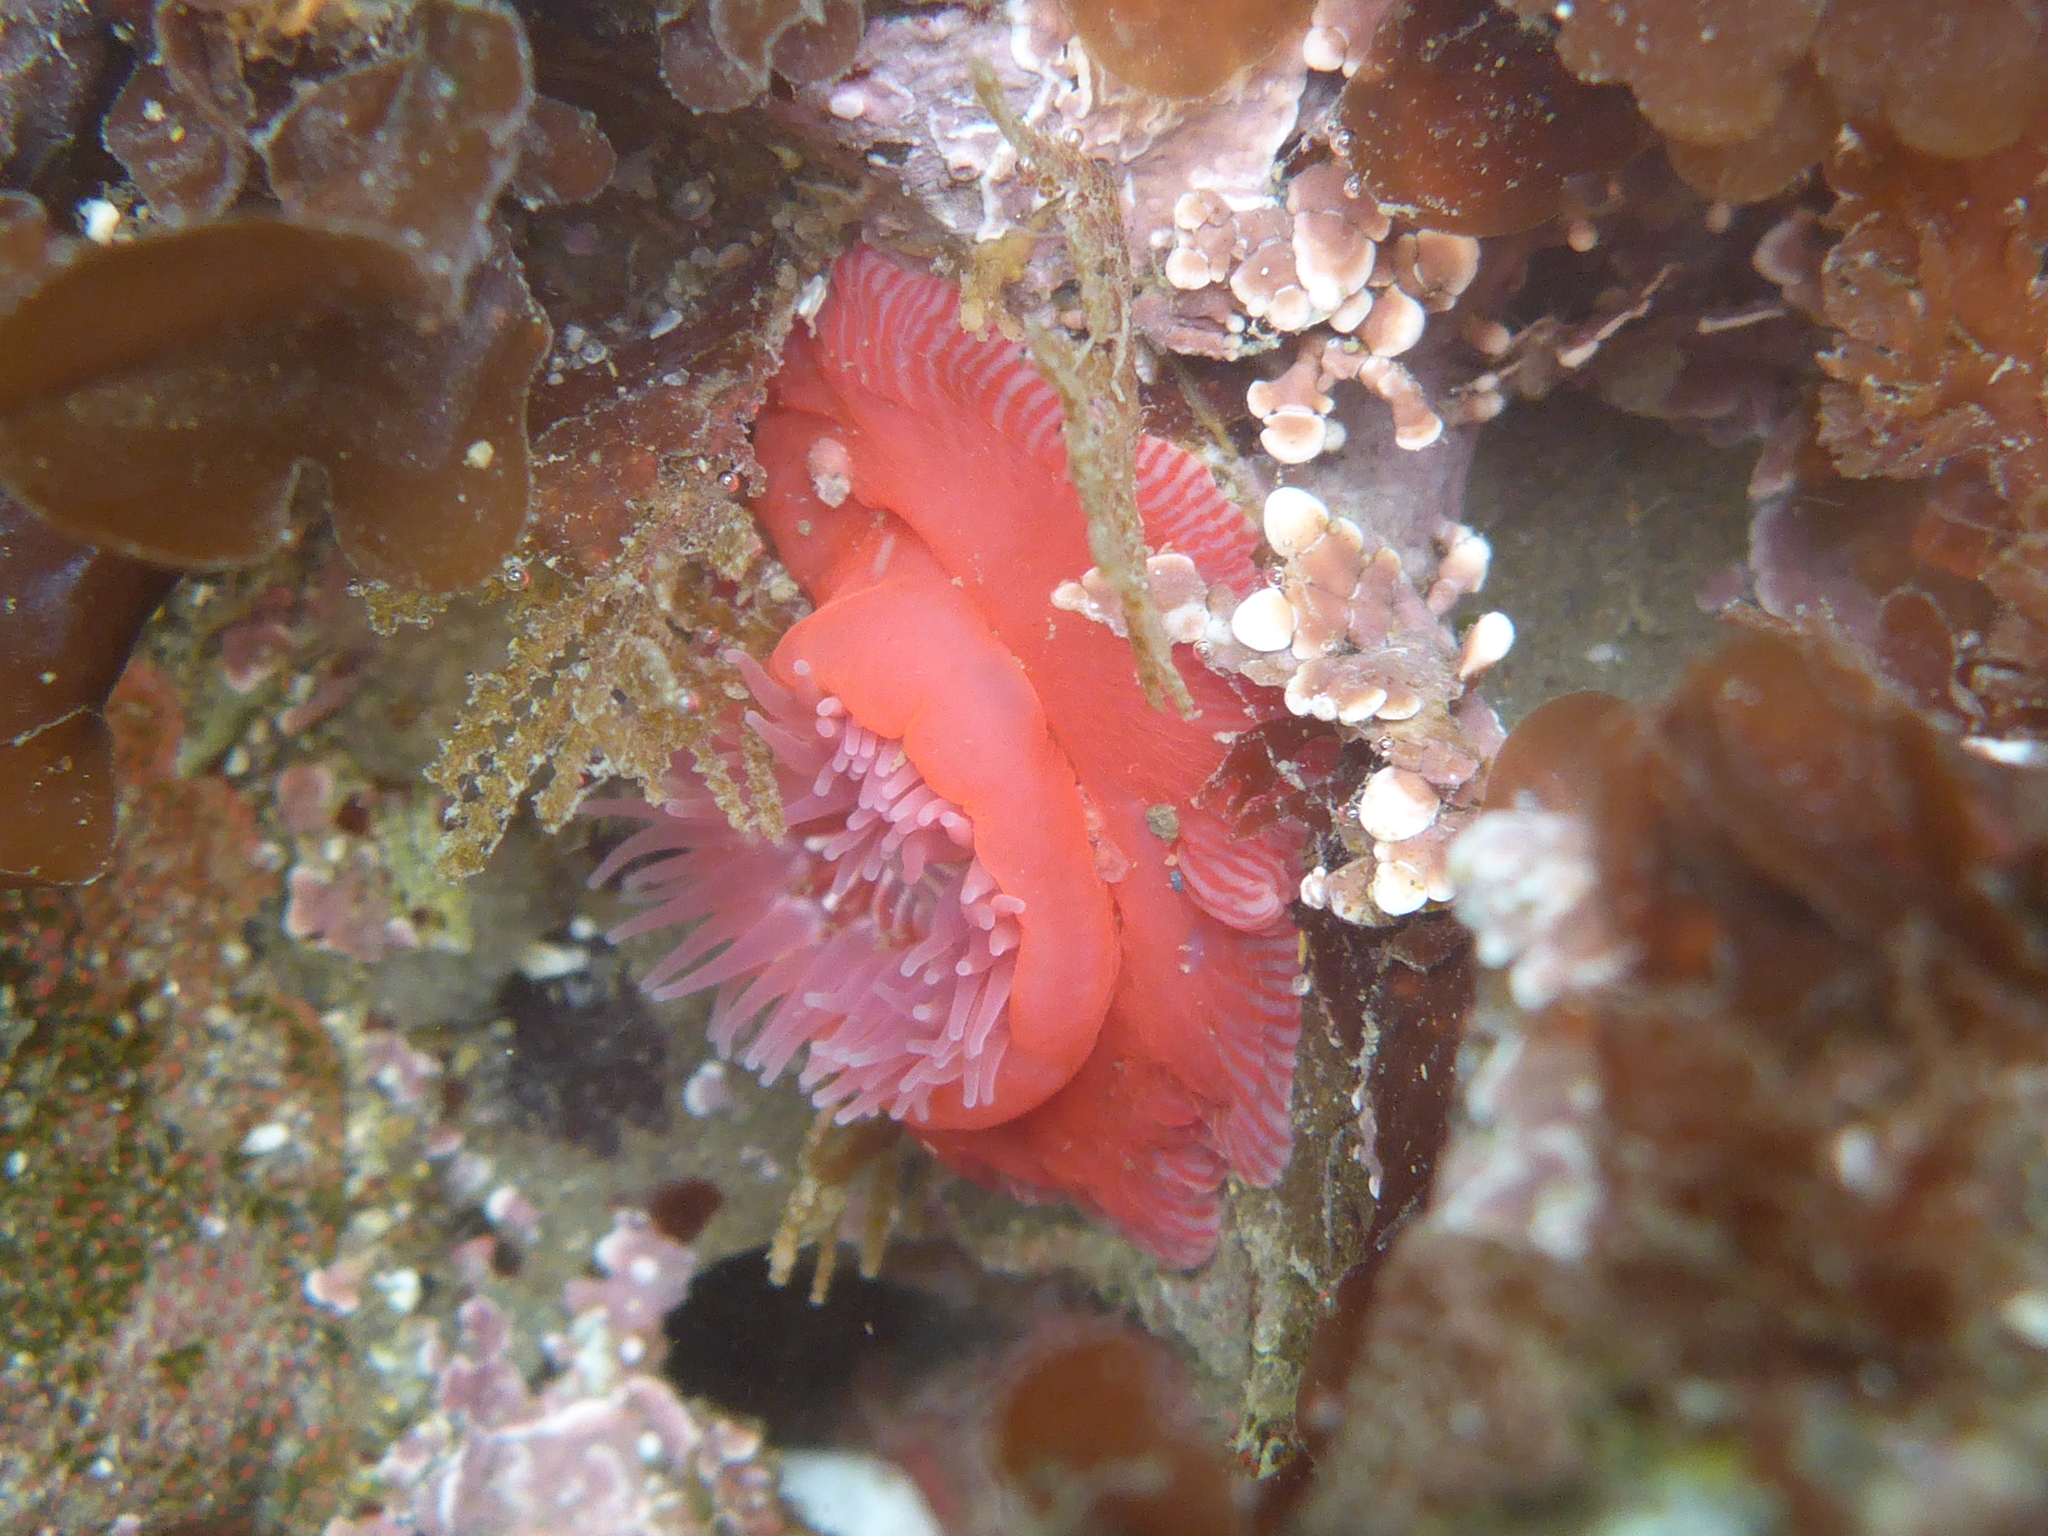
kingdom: Animalia
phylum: Cnidaria
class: Anthozoa
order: Actiniaria
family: Actiniidae
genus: Epiactis
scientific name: Epiactis prolifera
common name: Brooding anemone
